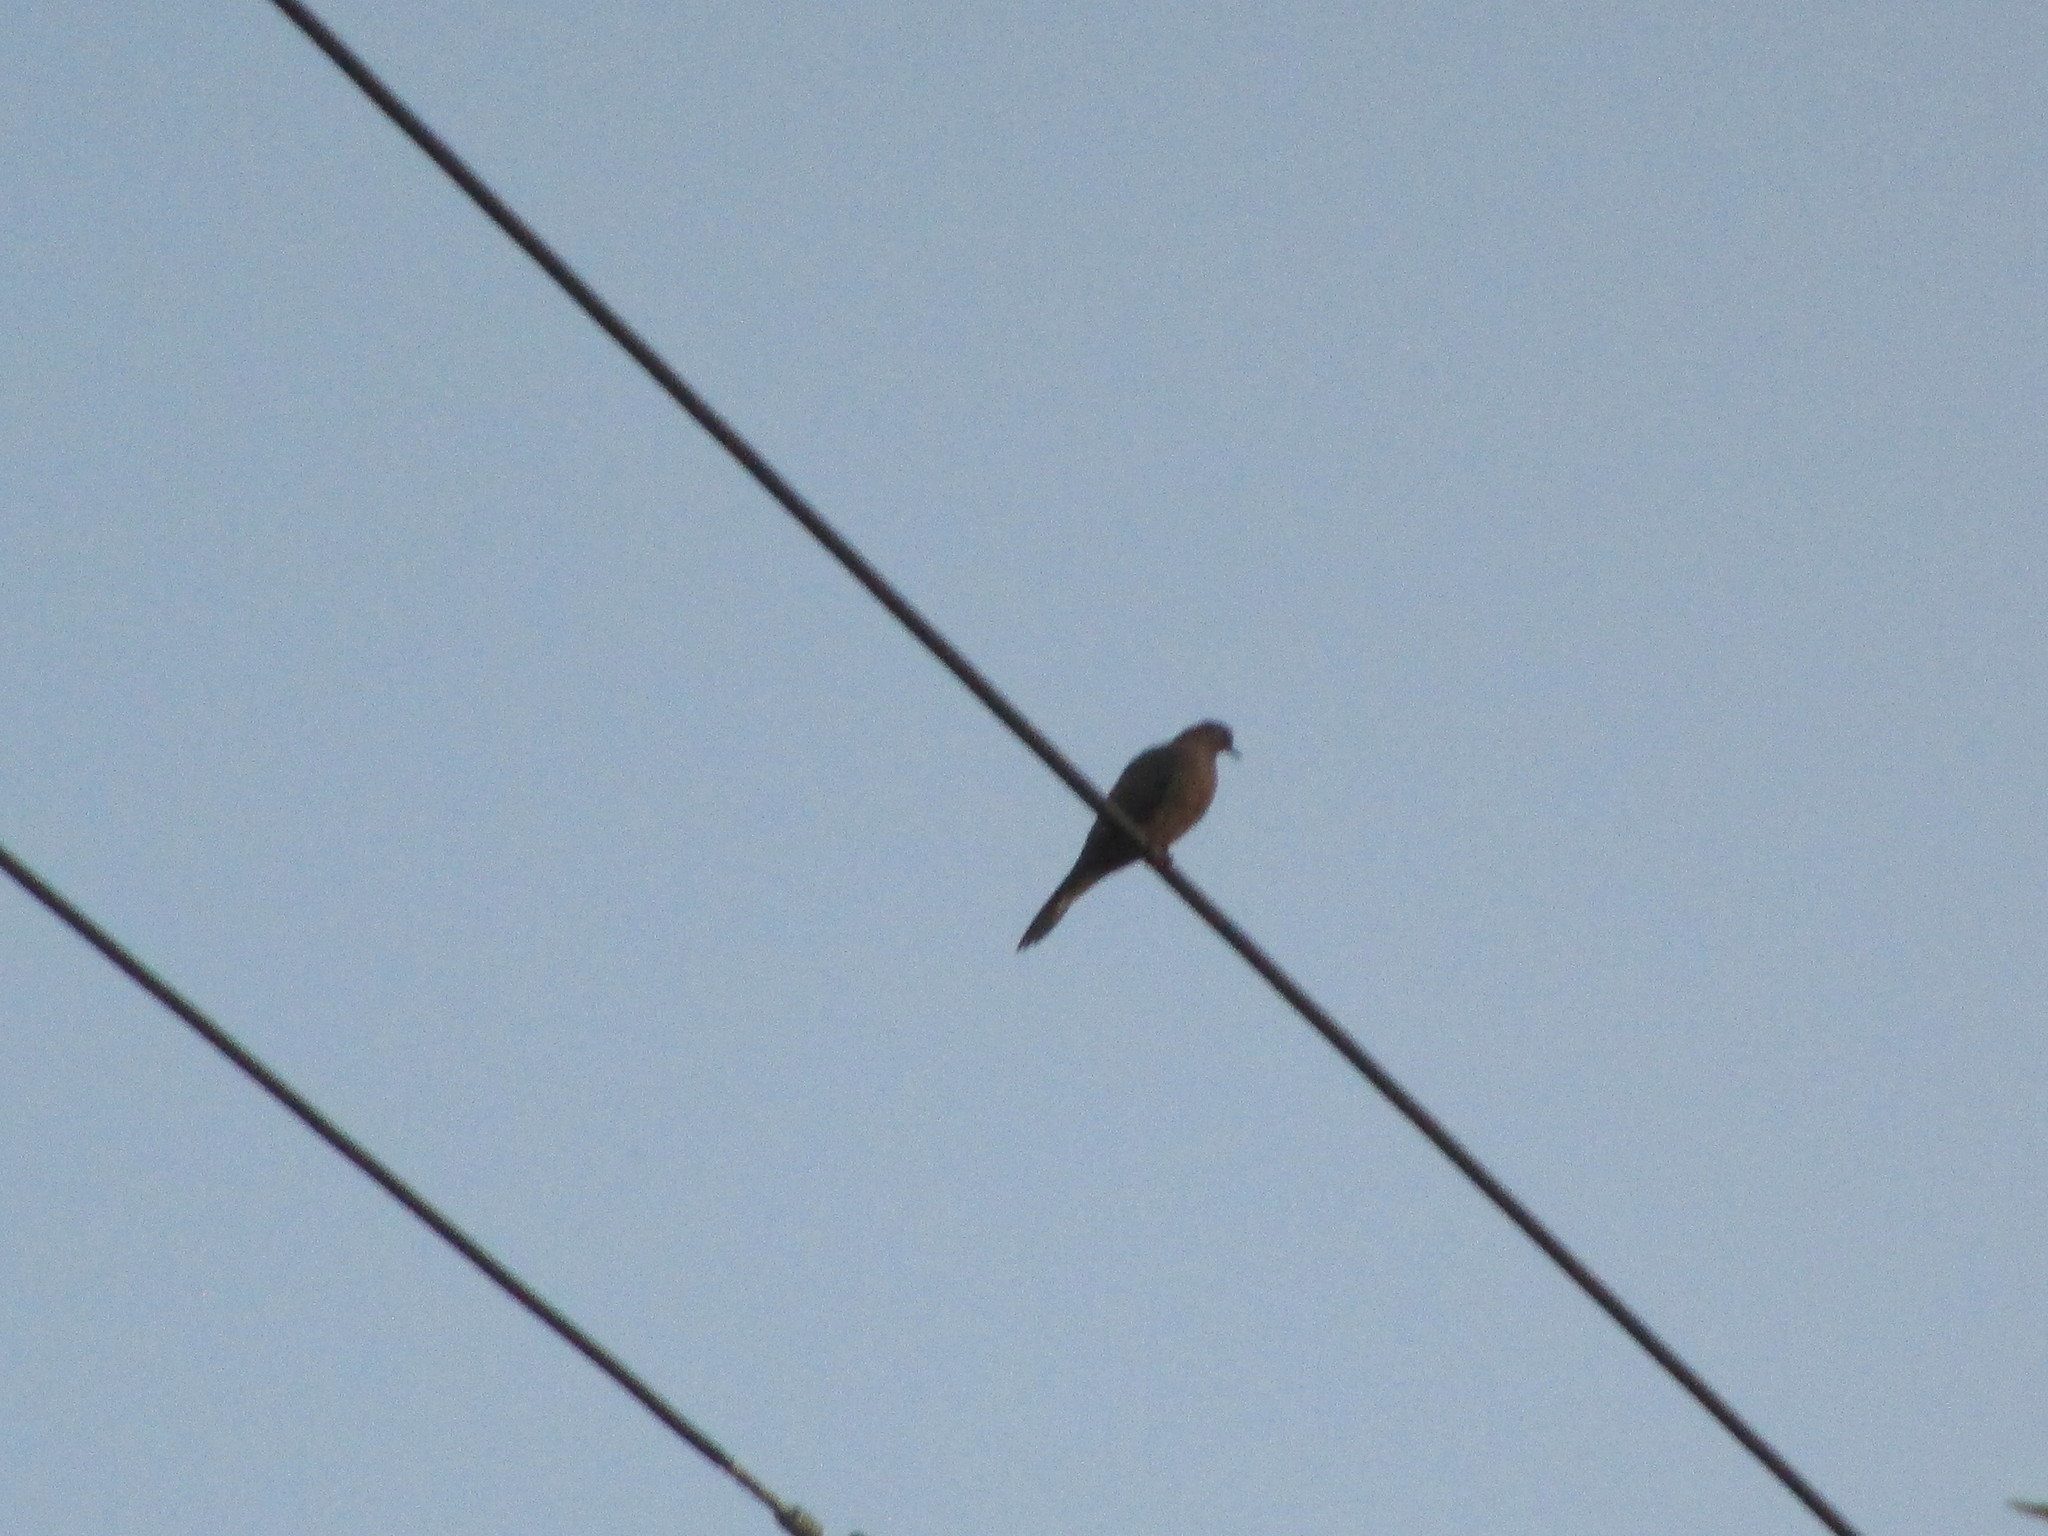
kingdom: Animalia
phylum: Chordata
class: Aves
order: Columbiformes
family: Columbidae
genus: Zenaida
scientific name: Zenaida macroura
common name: Mourning dove
